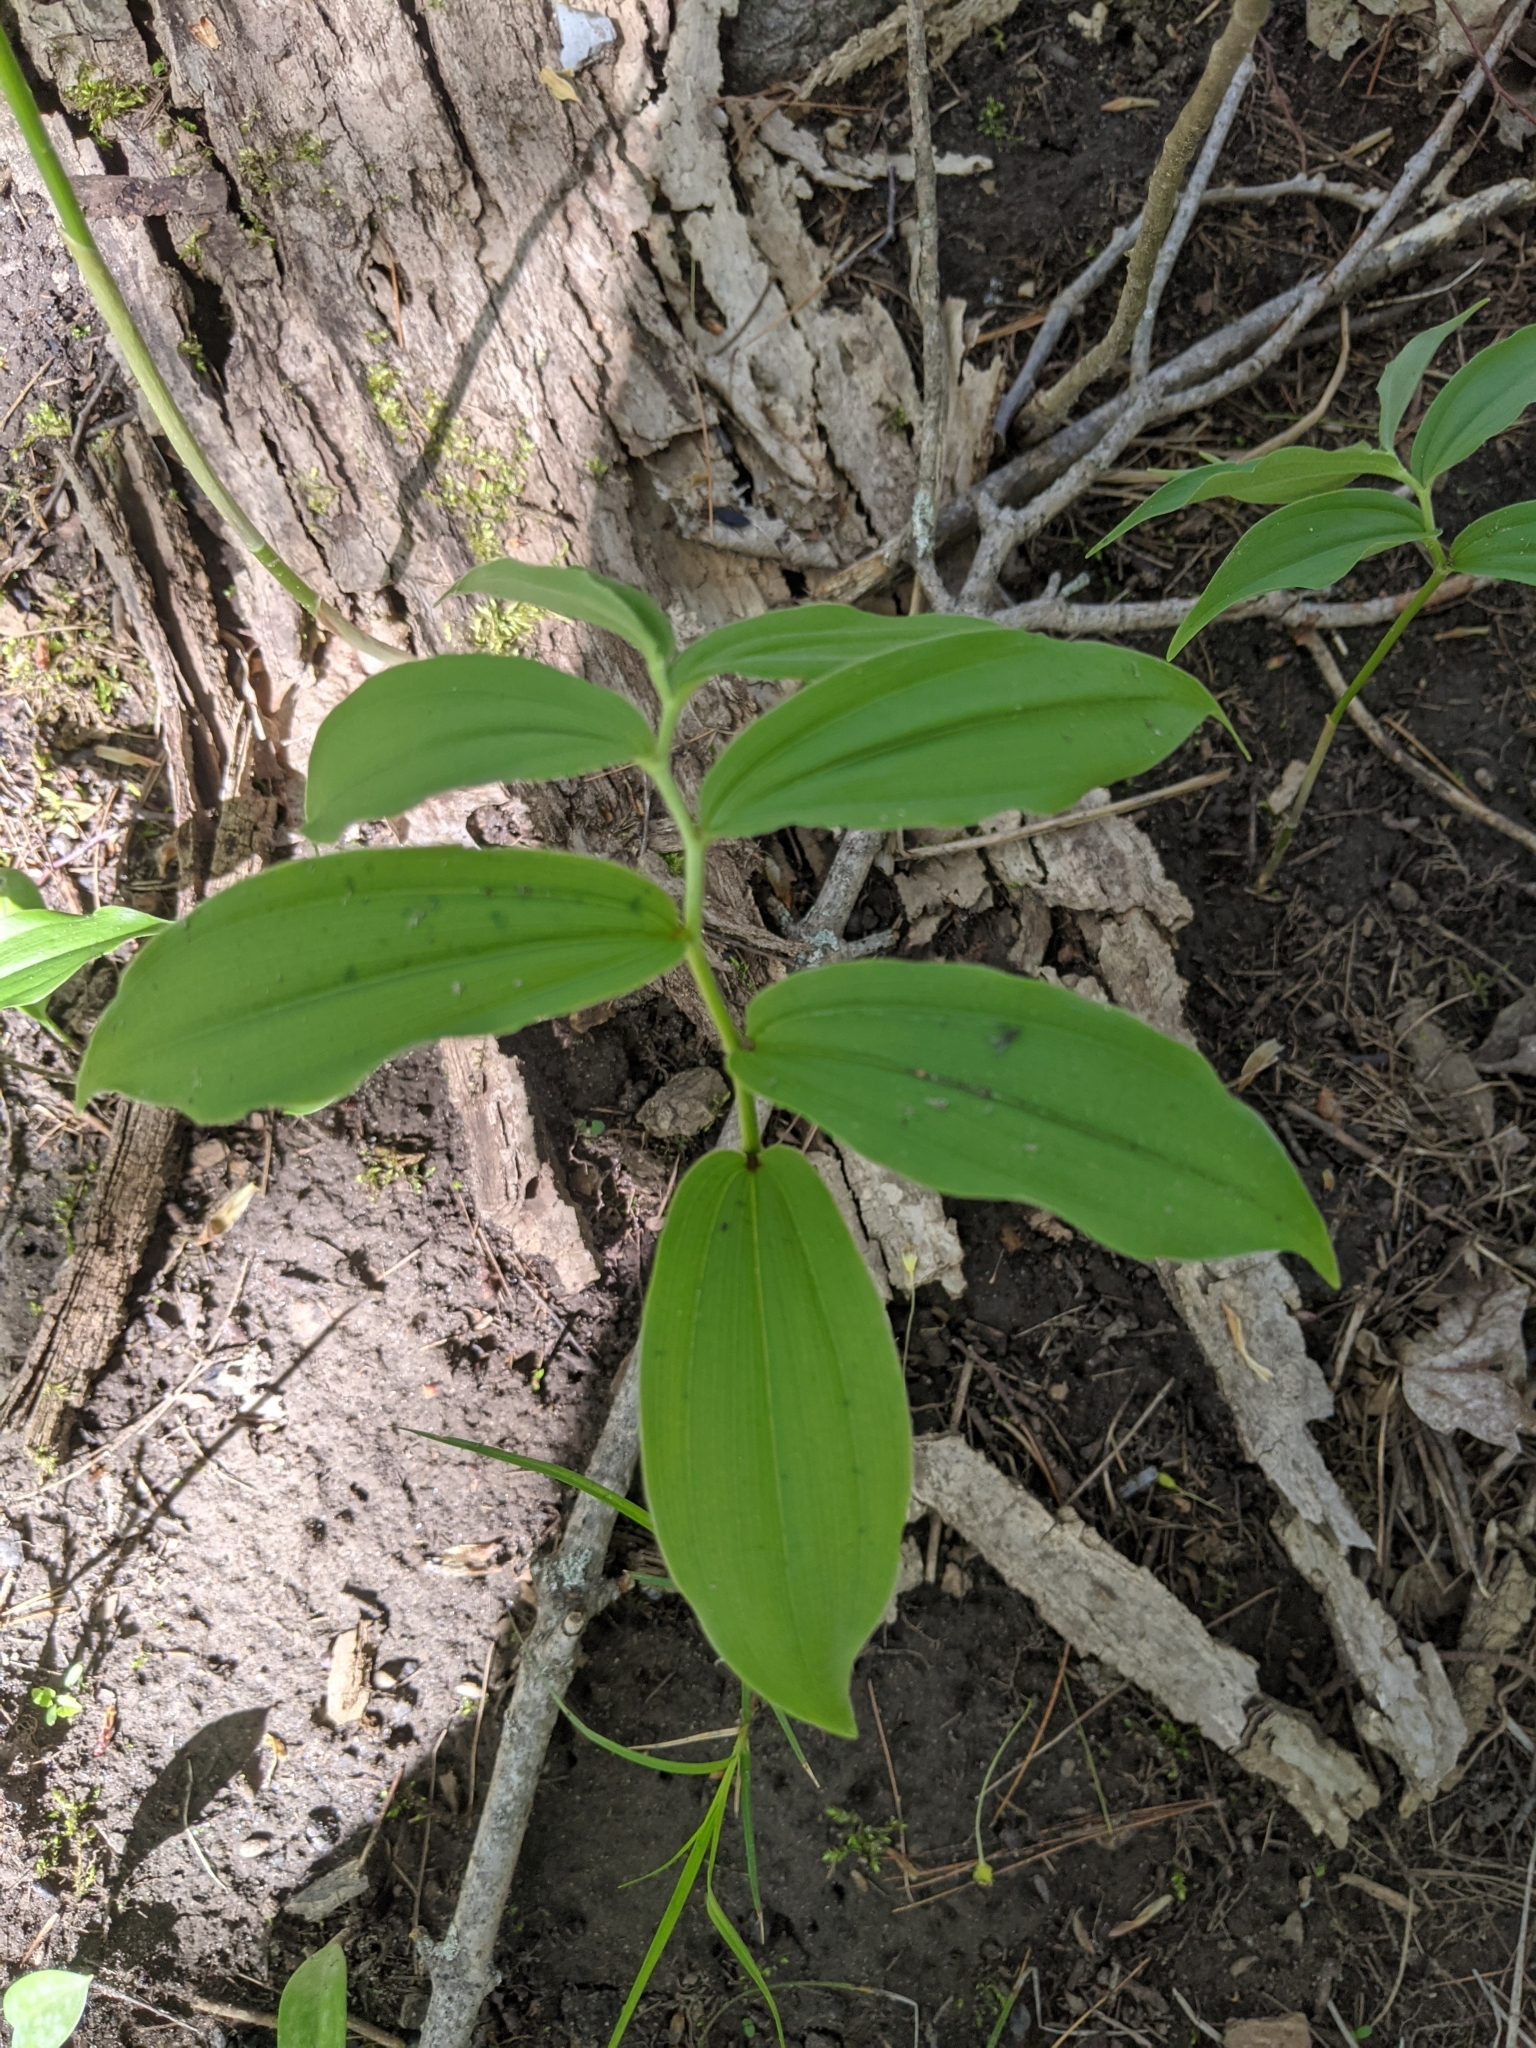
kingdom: Plantae
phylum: Tracheophyta
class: Liliopsida
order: Asparagales
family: Asparagaceae
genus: Maianthemum
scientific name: Maianthemum racemosum
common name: False spikenard
